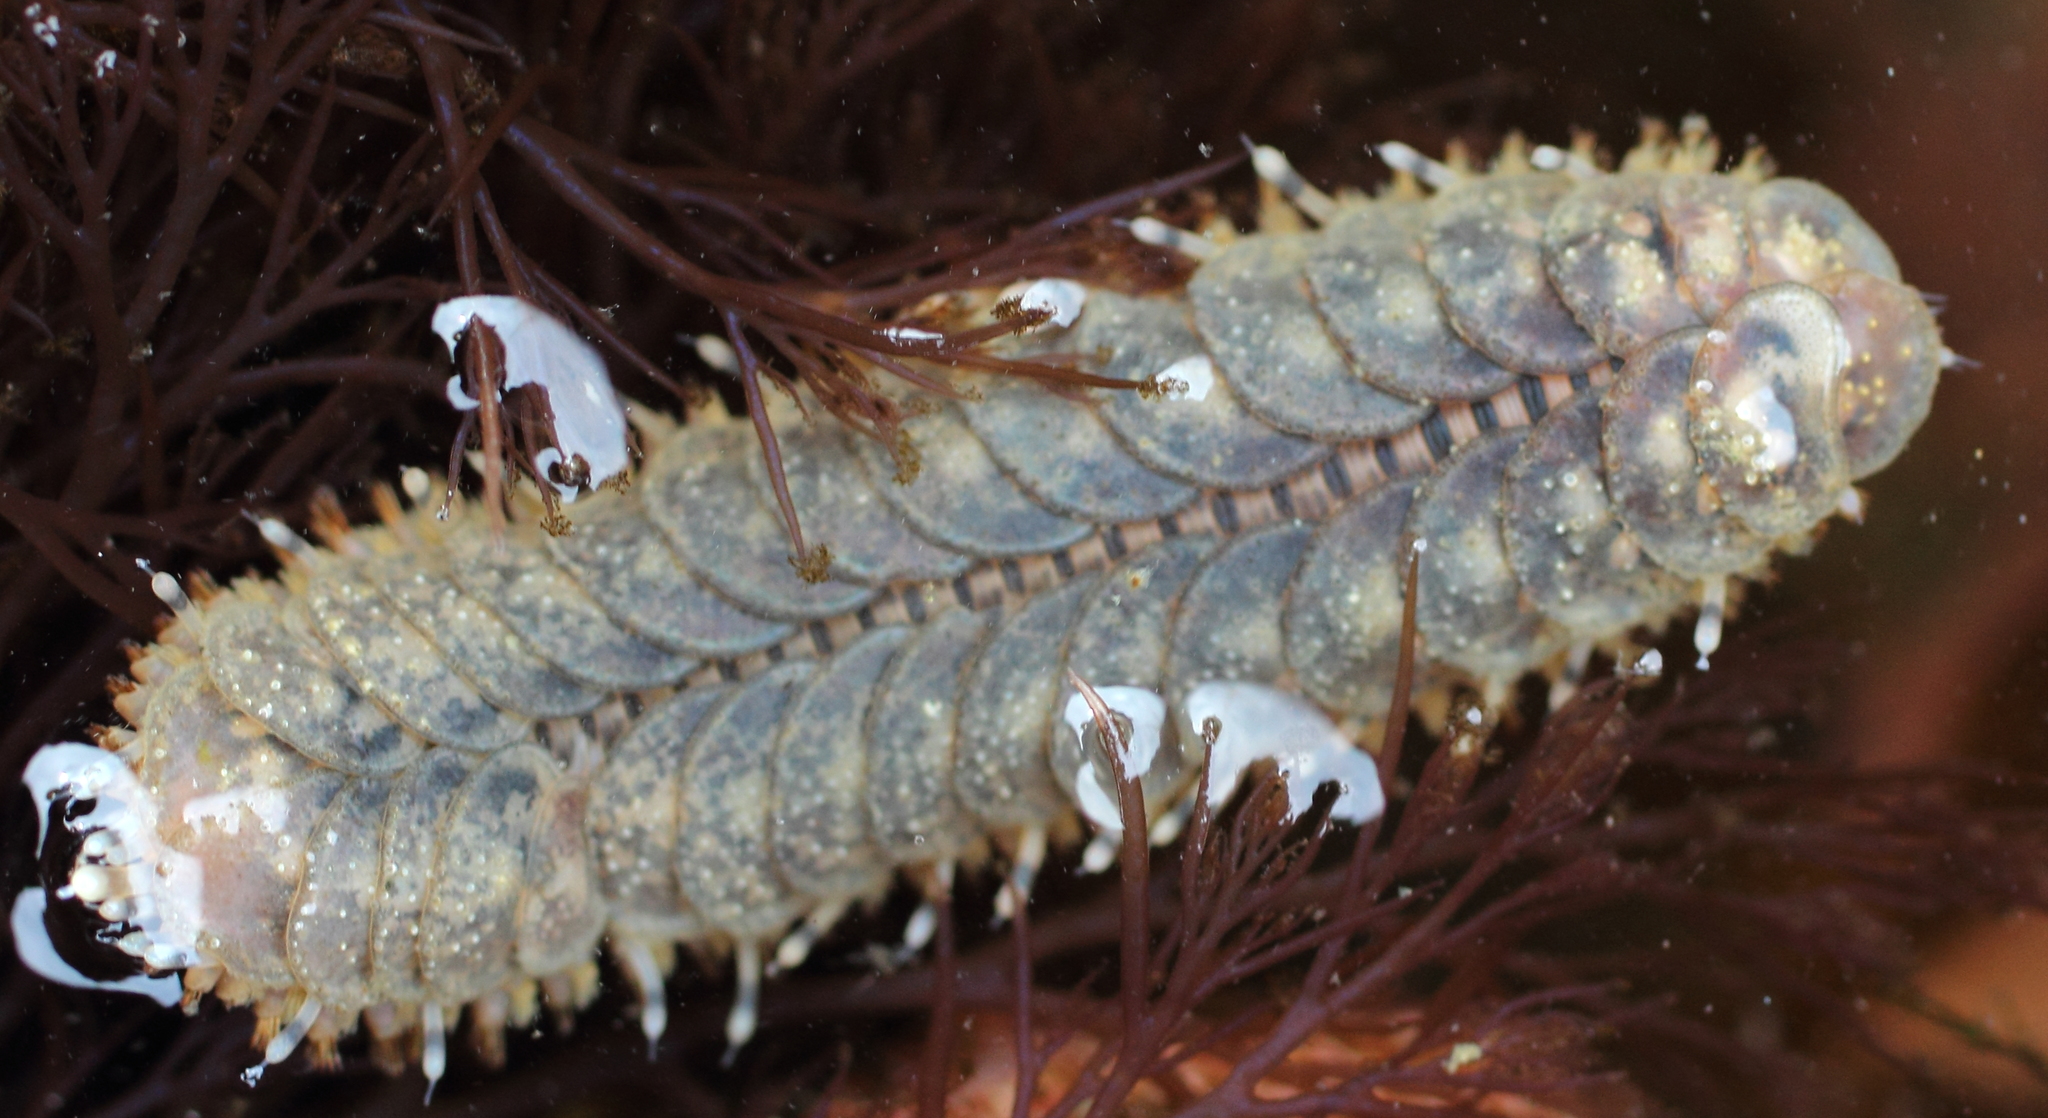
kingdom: Animalia
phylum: Annelida
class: Polychaeta
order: Phyllodocida
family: Polynoidae
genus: Halosydna
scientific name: Halosydna brevisetosa
